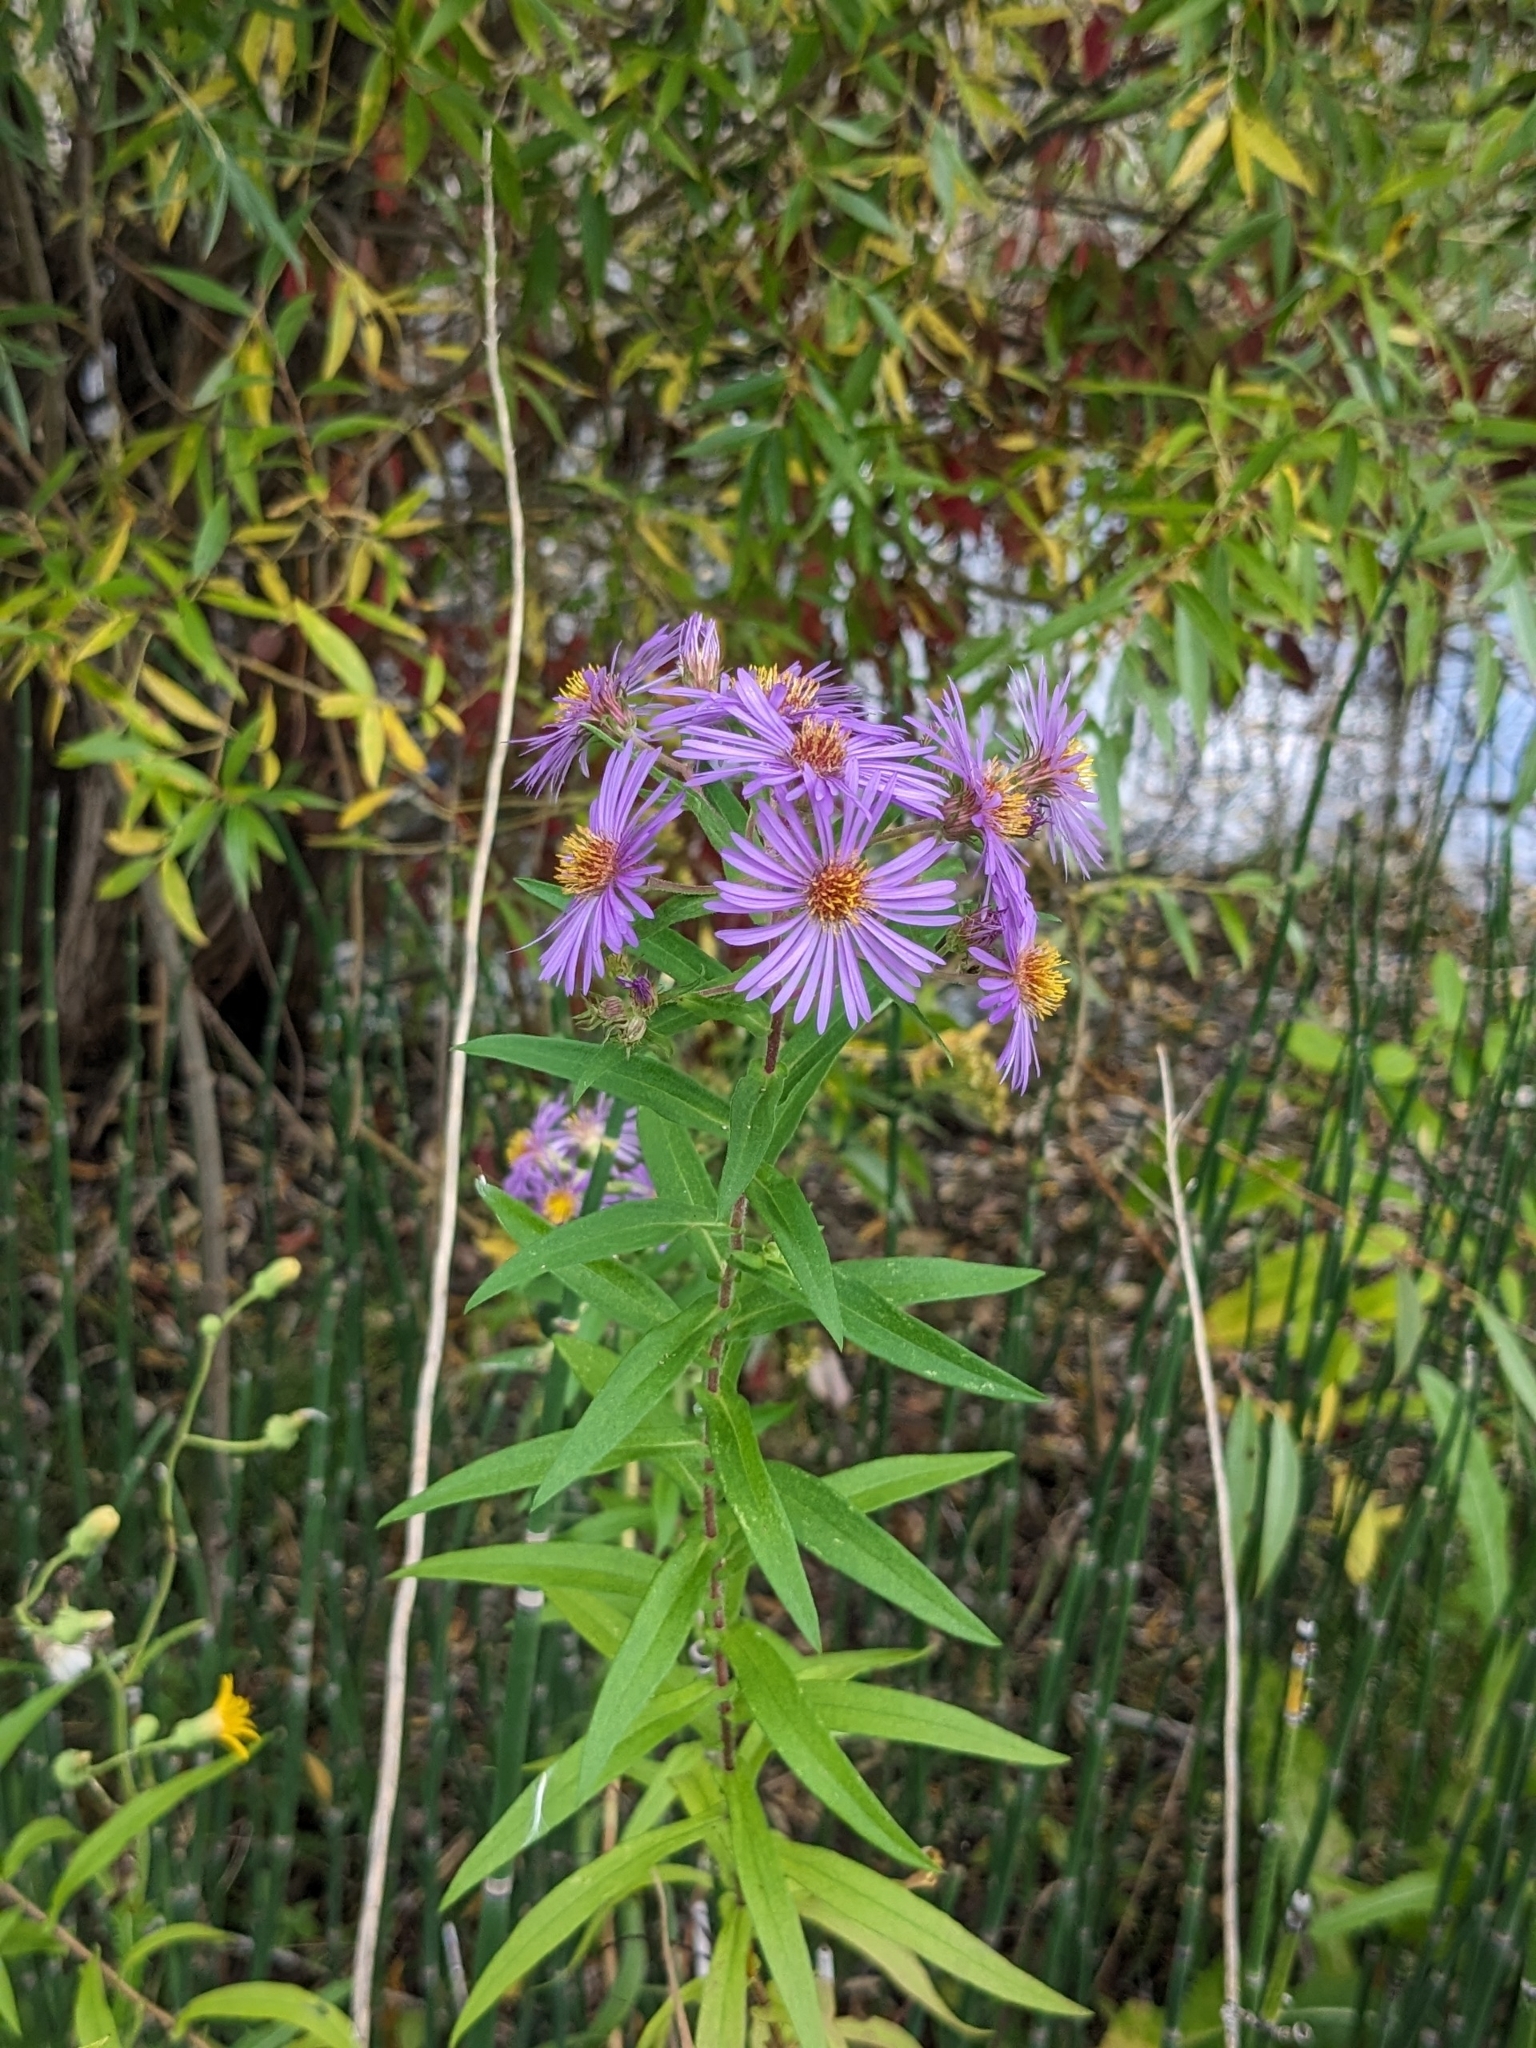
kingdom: Plantae
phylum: Tracheophyta
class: Magnoliopsida
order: Asterales
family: Asteraceae
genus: Symphyotrichum
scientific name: Symphyotrichum novae-angliae
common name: Michaelmas daisy
